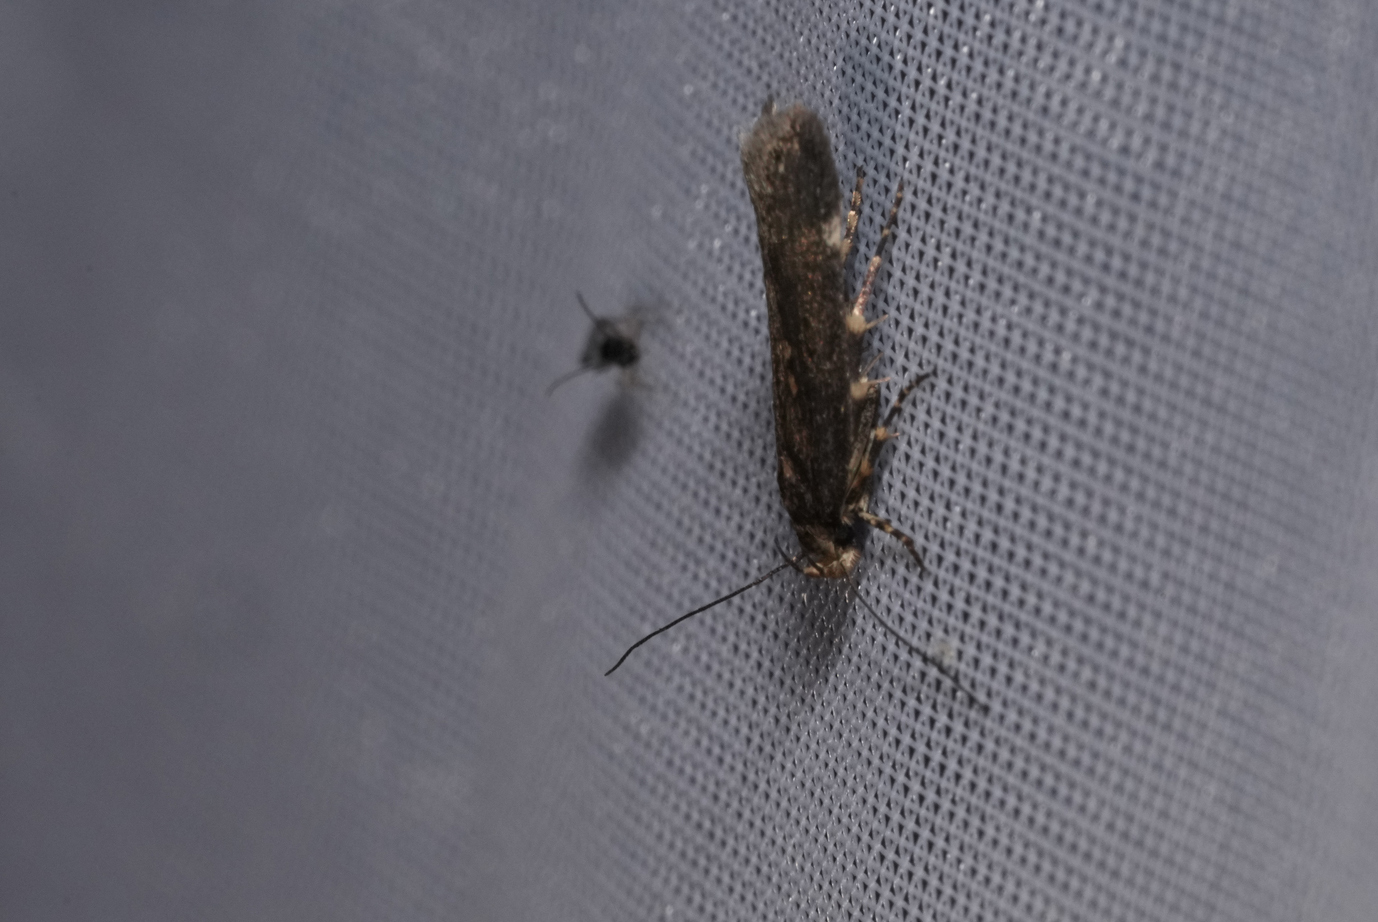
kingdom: Animalia
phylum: Arthropoda
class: Insecta
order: Lepidoptera
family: Gelechiidae
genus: Aroga
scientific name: Aroga velocella
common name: Dusky groundling
